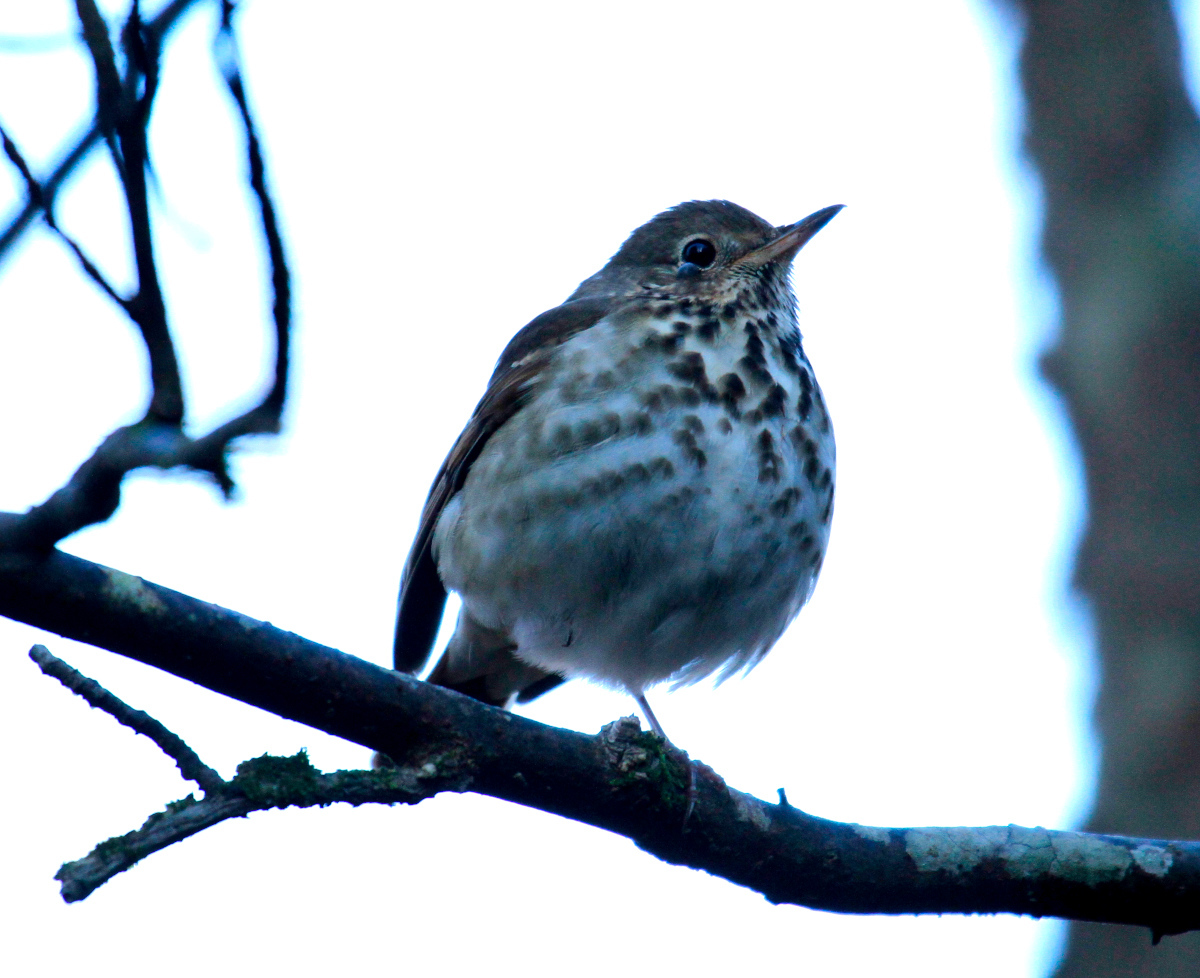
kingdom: Animalia
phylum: Chordata
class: Aves
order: Passeriformes
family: Turdidae
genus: Catharus
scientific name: Catharus guttatus
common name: Hermit thrush
